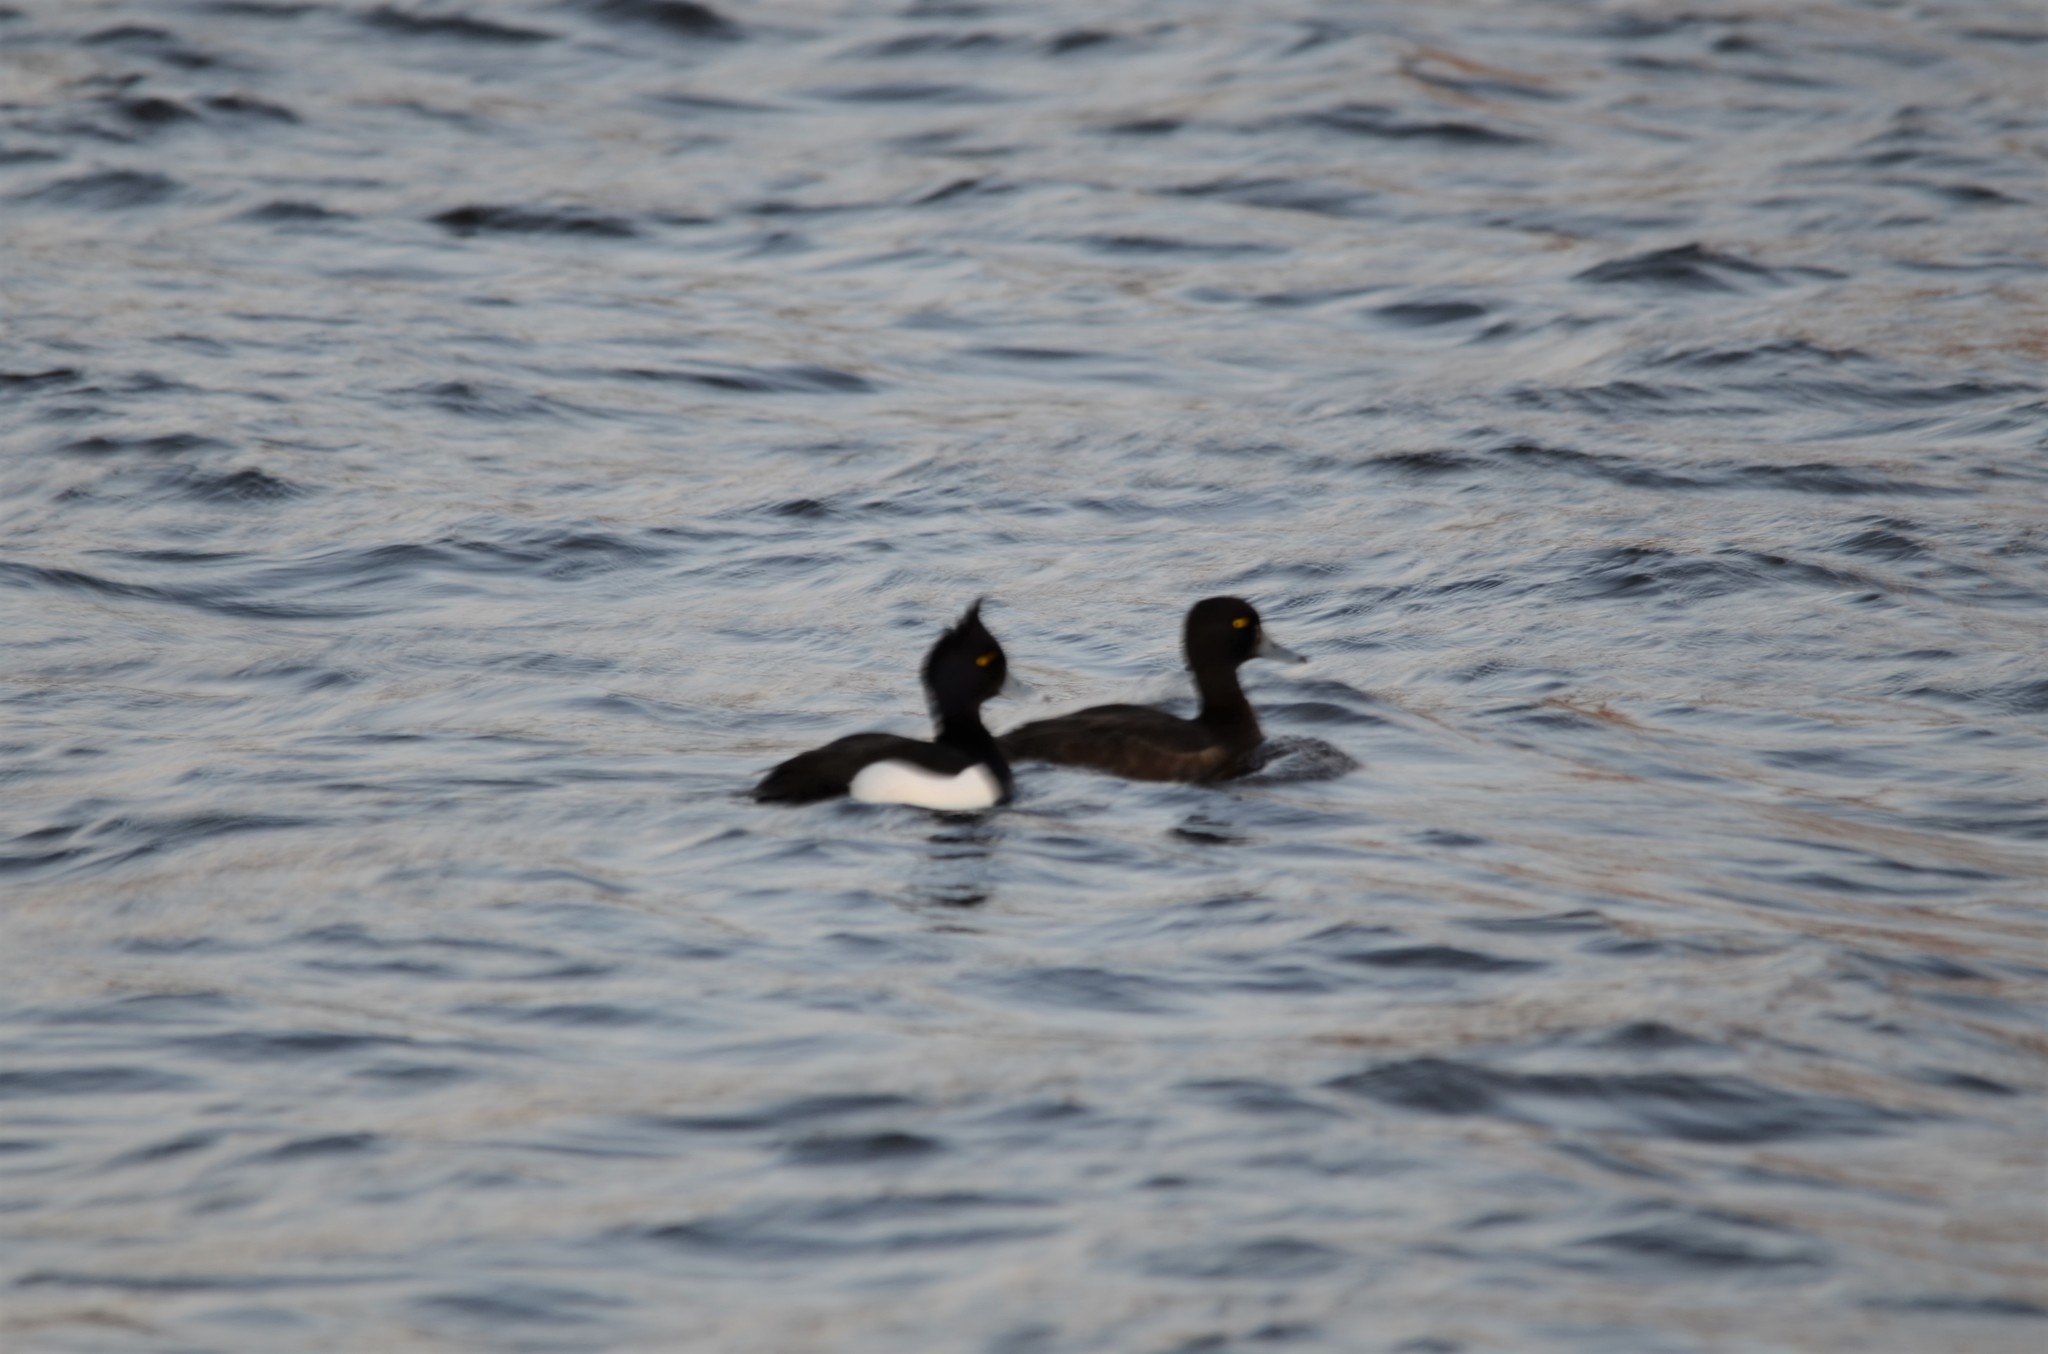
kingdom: Animalia
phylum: Chordata
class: Aves
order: Anseriformes
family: Anatidae
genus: Aythya
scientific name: Aythya fuligula
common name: Tufted duck
